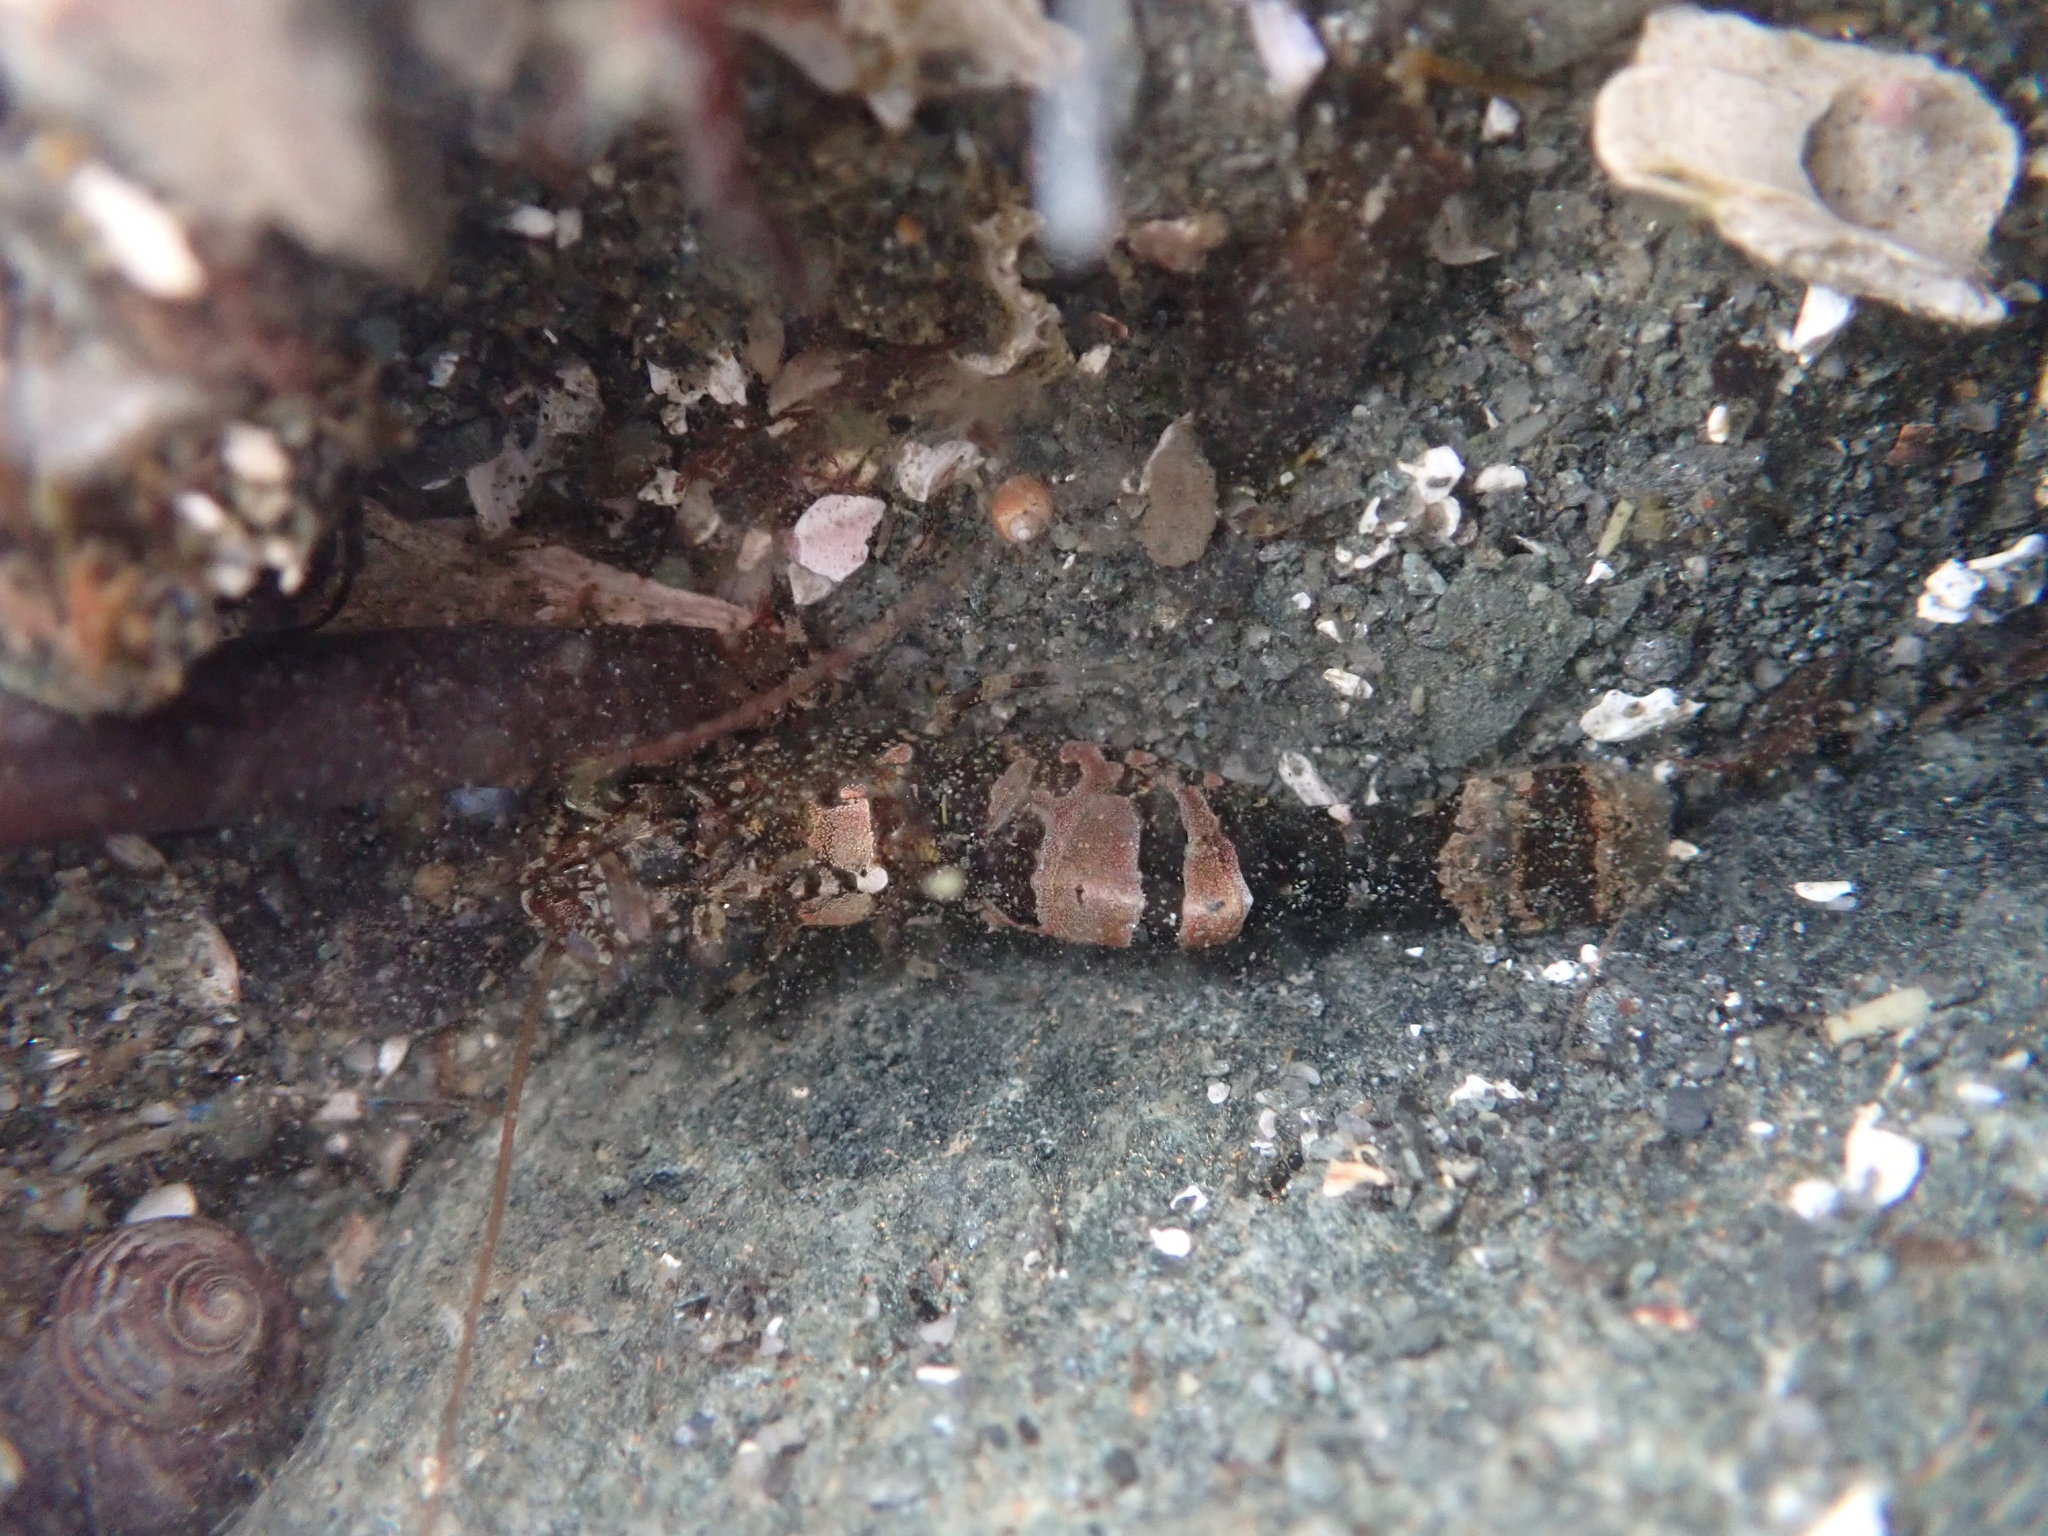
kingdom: Animalia
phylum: Arthropoda
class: Malacostraca
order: Decapoda
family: Thoridae
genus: Heptacarpus
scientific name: Heptacarpus brevirostris
